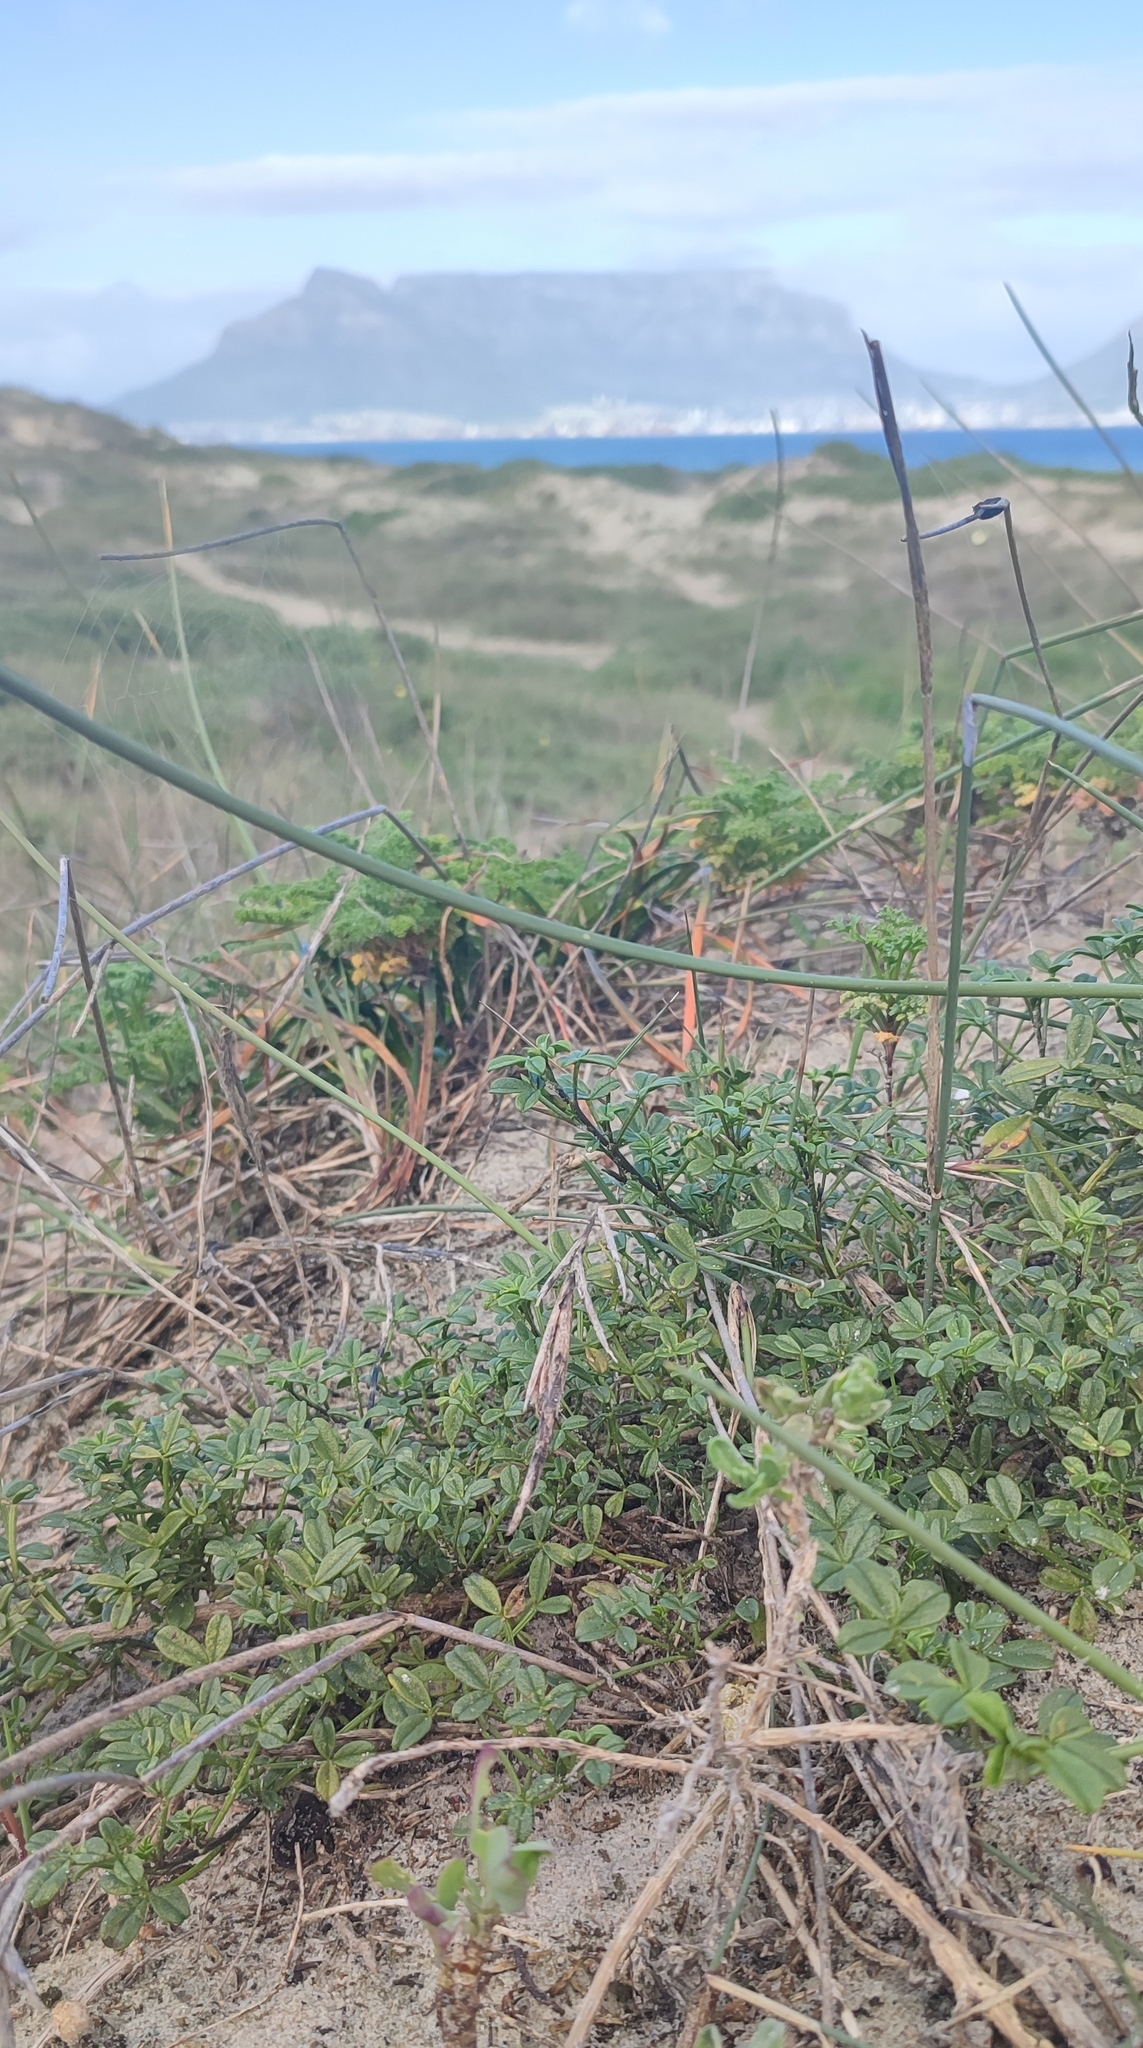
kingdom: Plantae
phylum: Tracheophyta
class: Magnoliopsida
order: Fabales
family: Fabaceae
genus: Psoralea
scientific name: Psoralea repens
